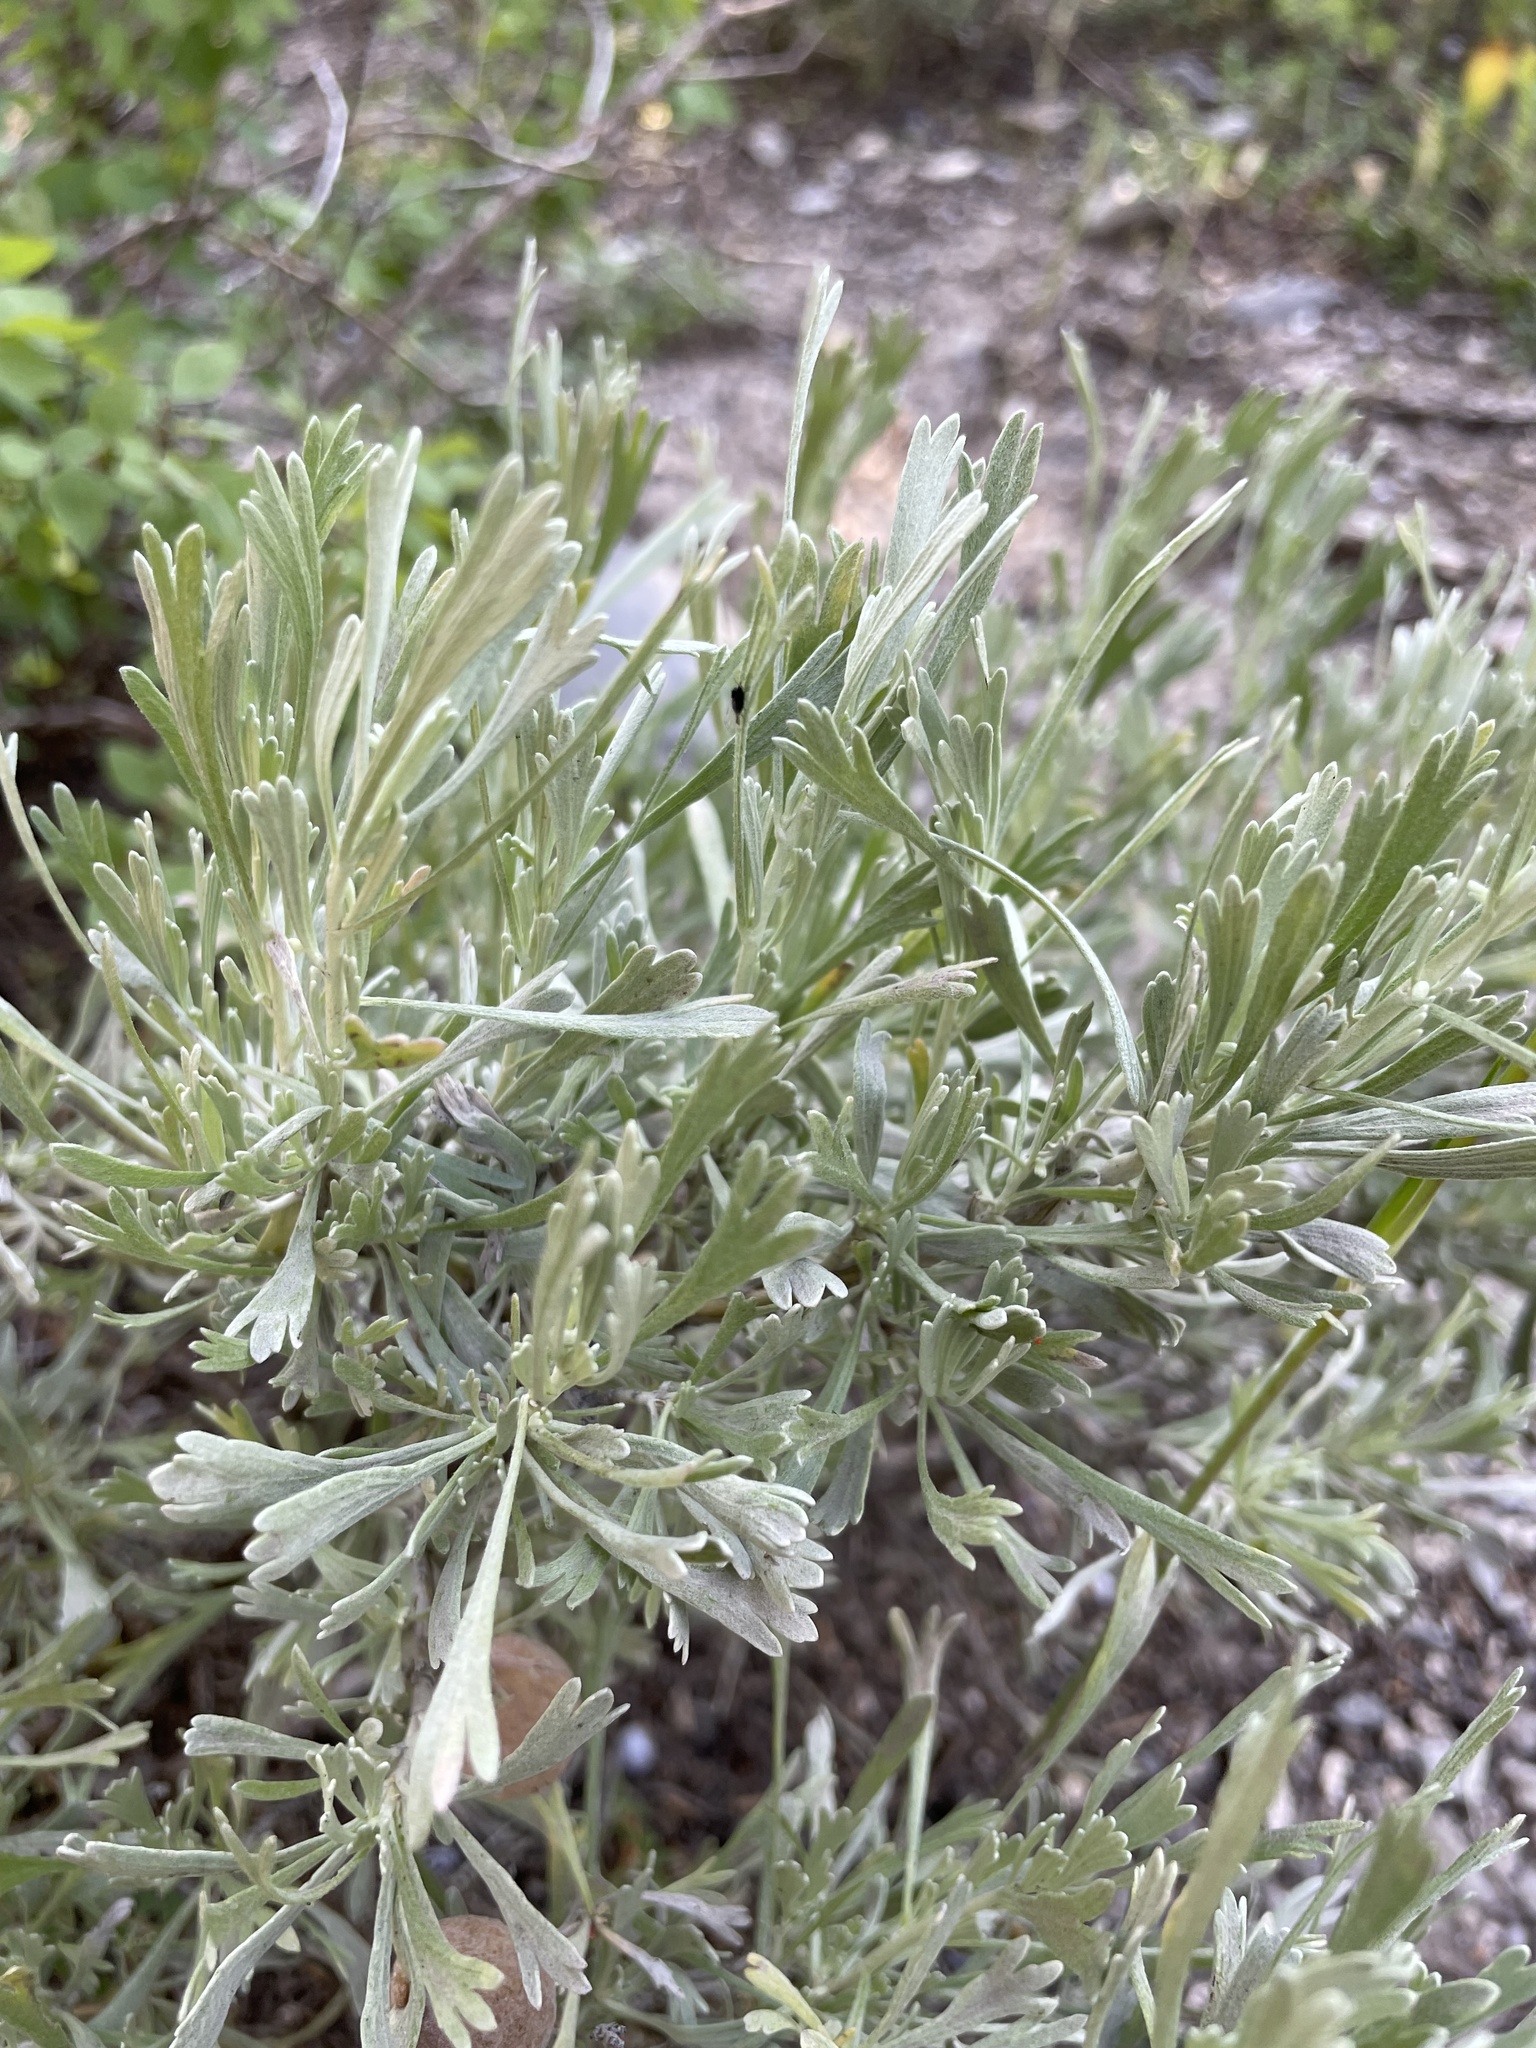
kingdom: Plantae
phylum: Tracheophyta
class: Magnoliopsida
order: Asterales
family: Asteraceae
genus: Artemisia
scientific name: Artemisia tridentata
